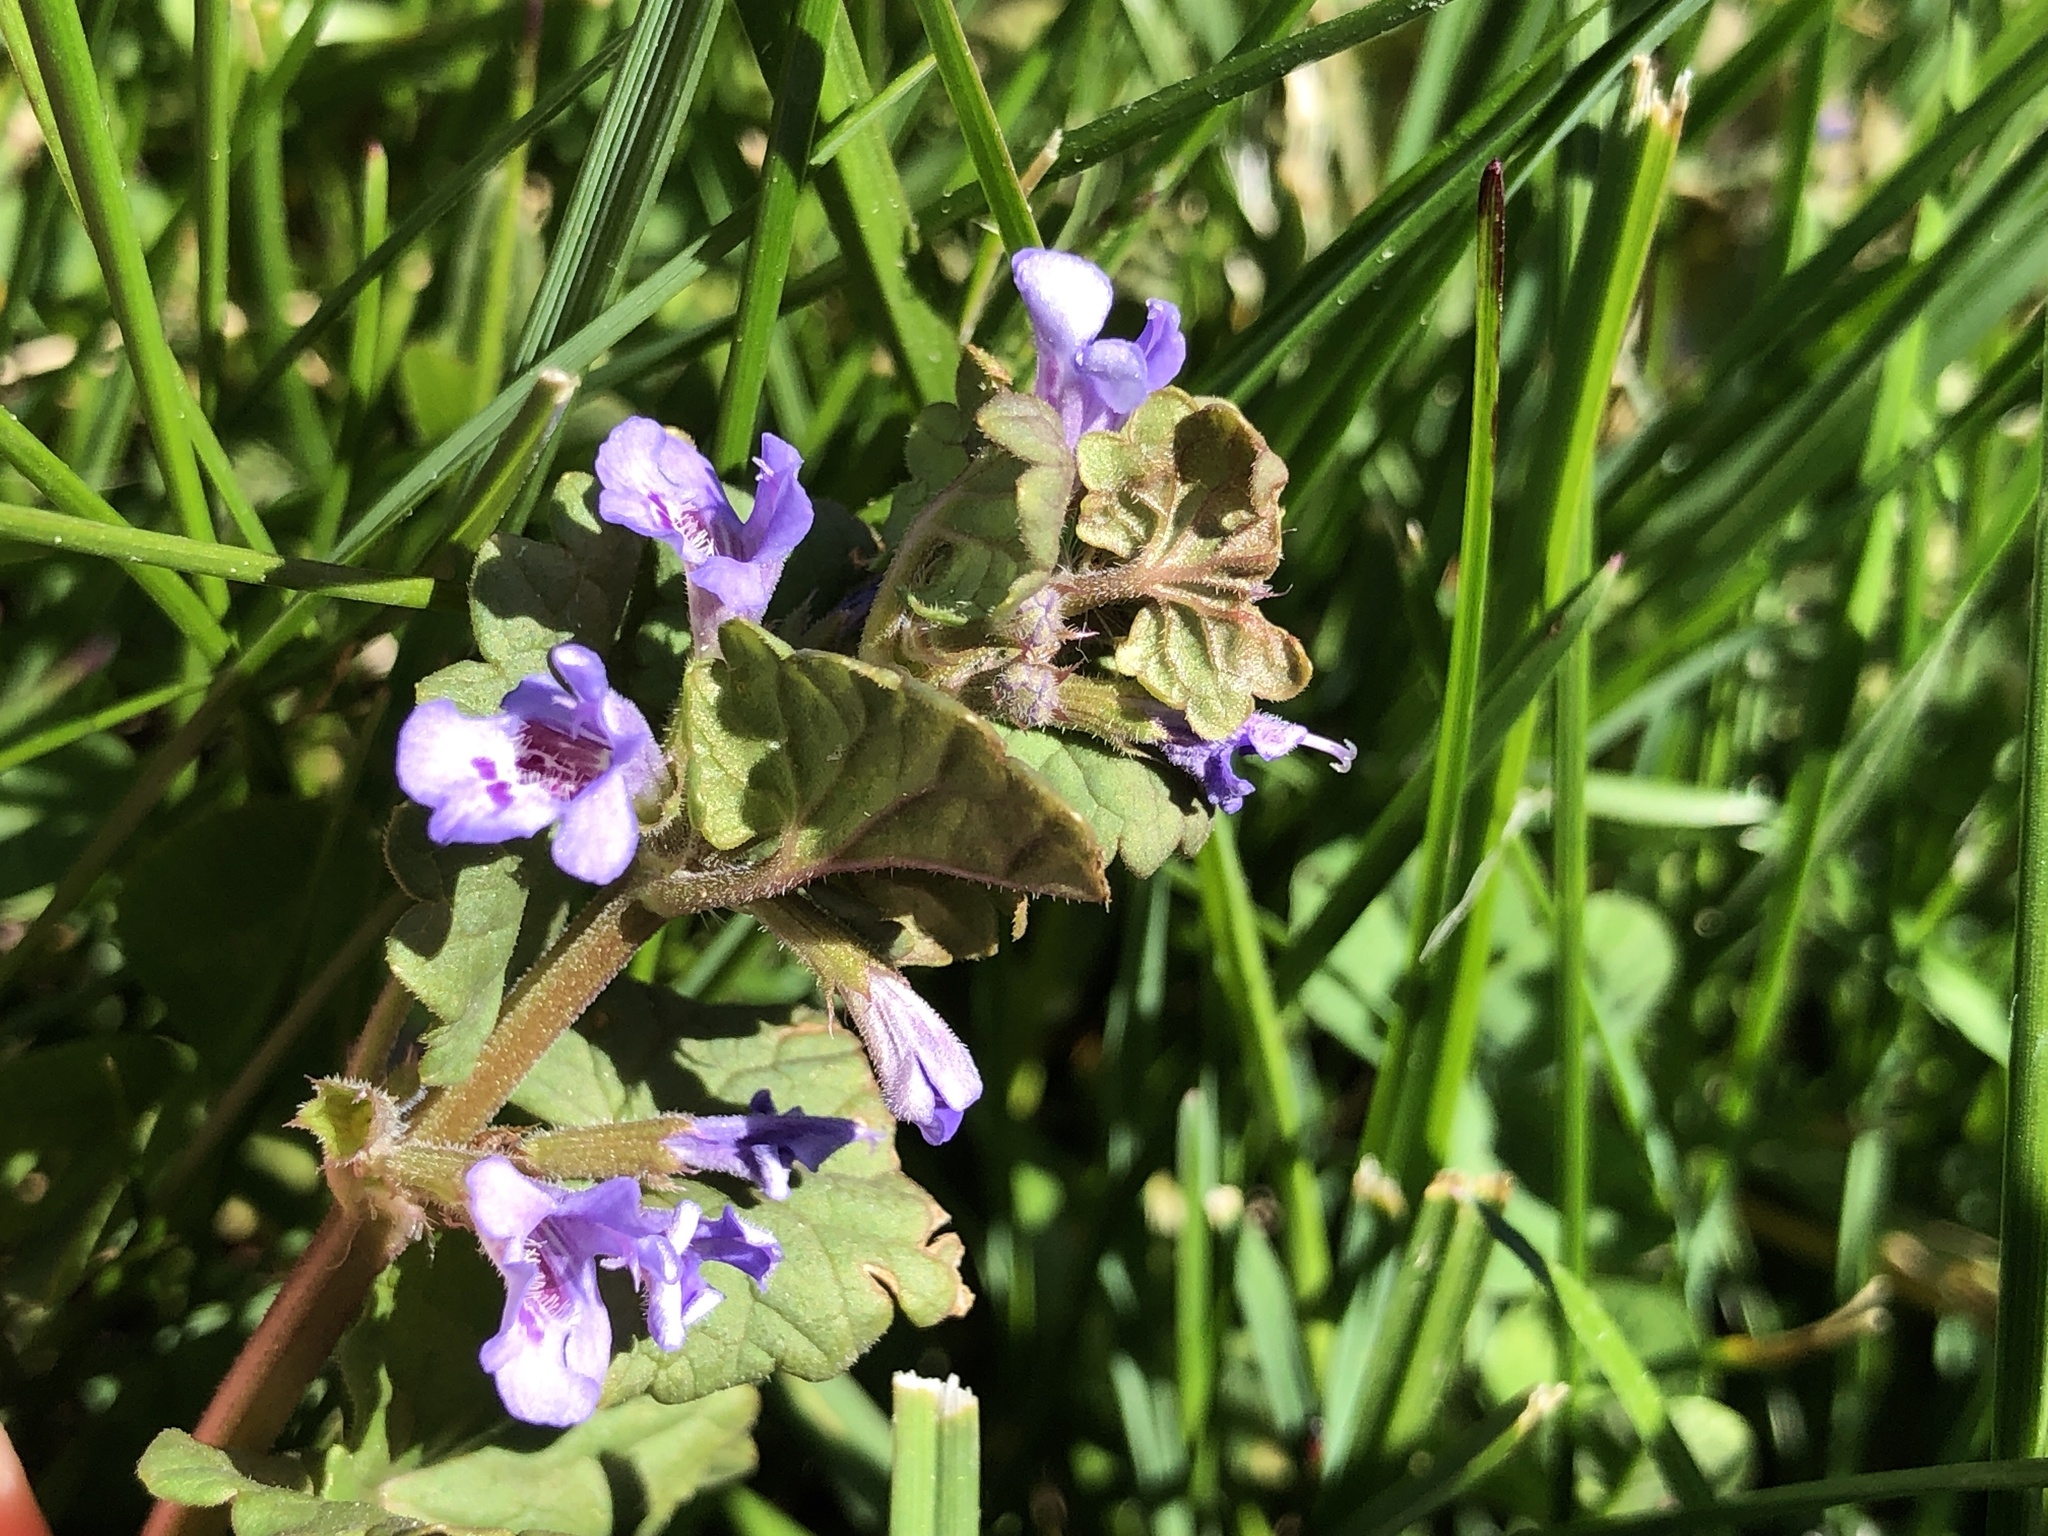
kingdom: Plantae
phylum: Tracheophyta
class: Magnoliopsida
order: Lamiales
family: Lamiaceae
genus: Glechoma
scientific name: Glechoma hederacea
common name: Ground ivy
